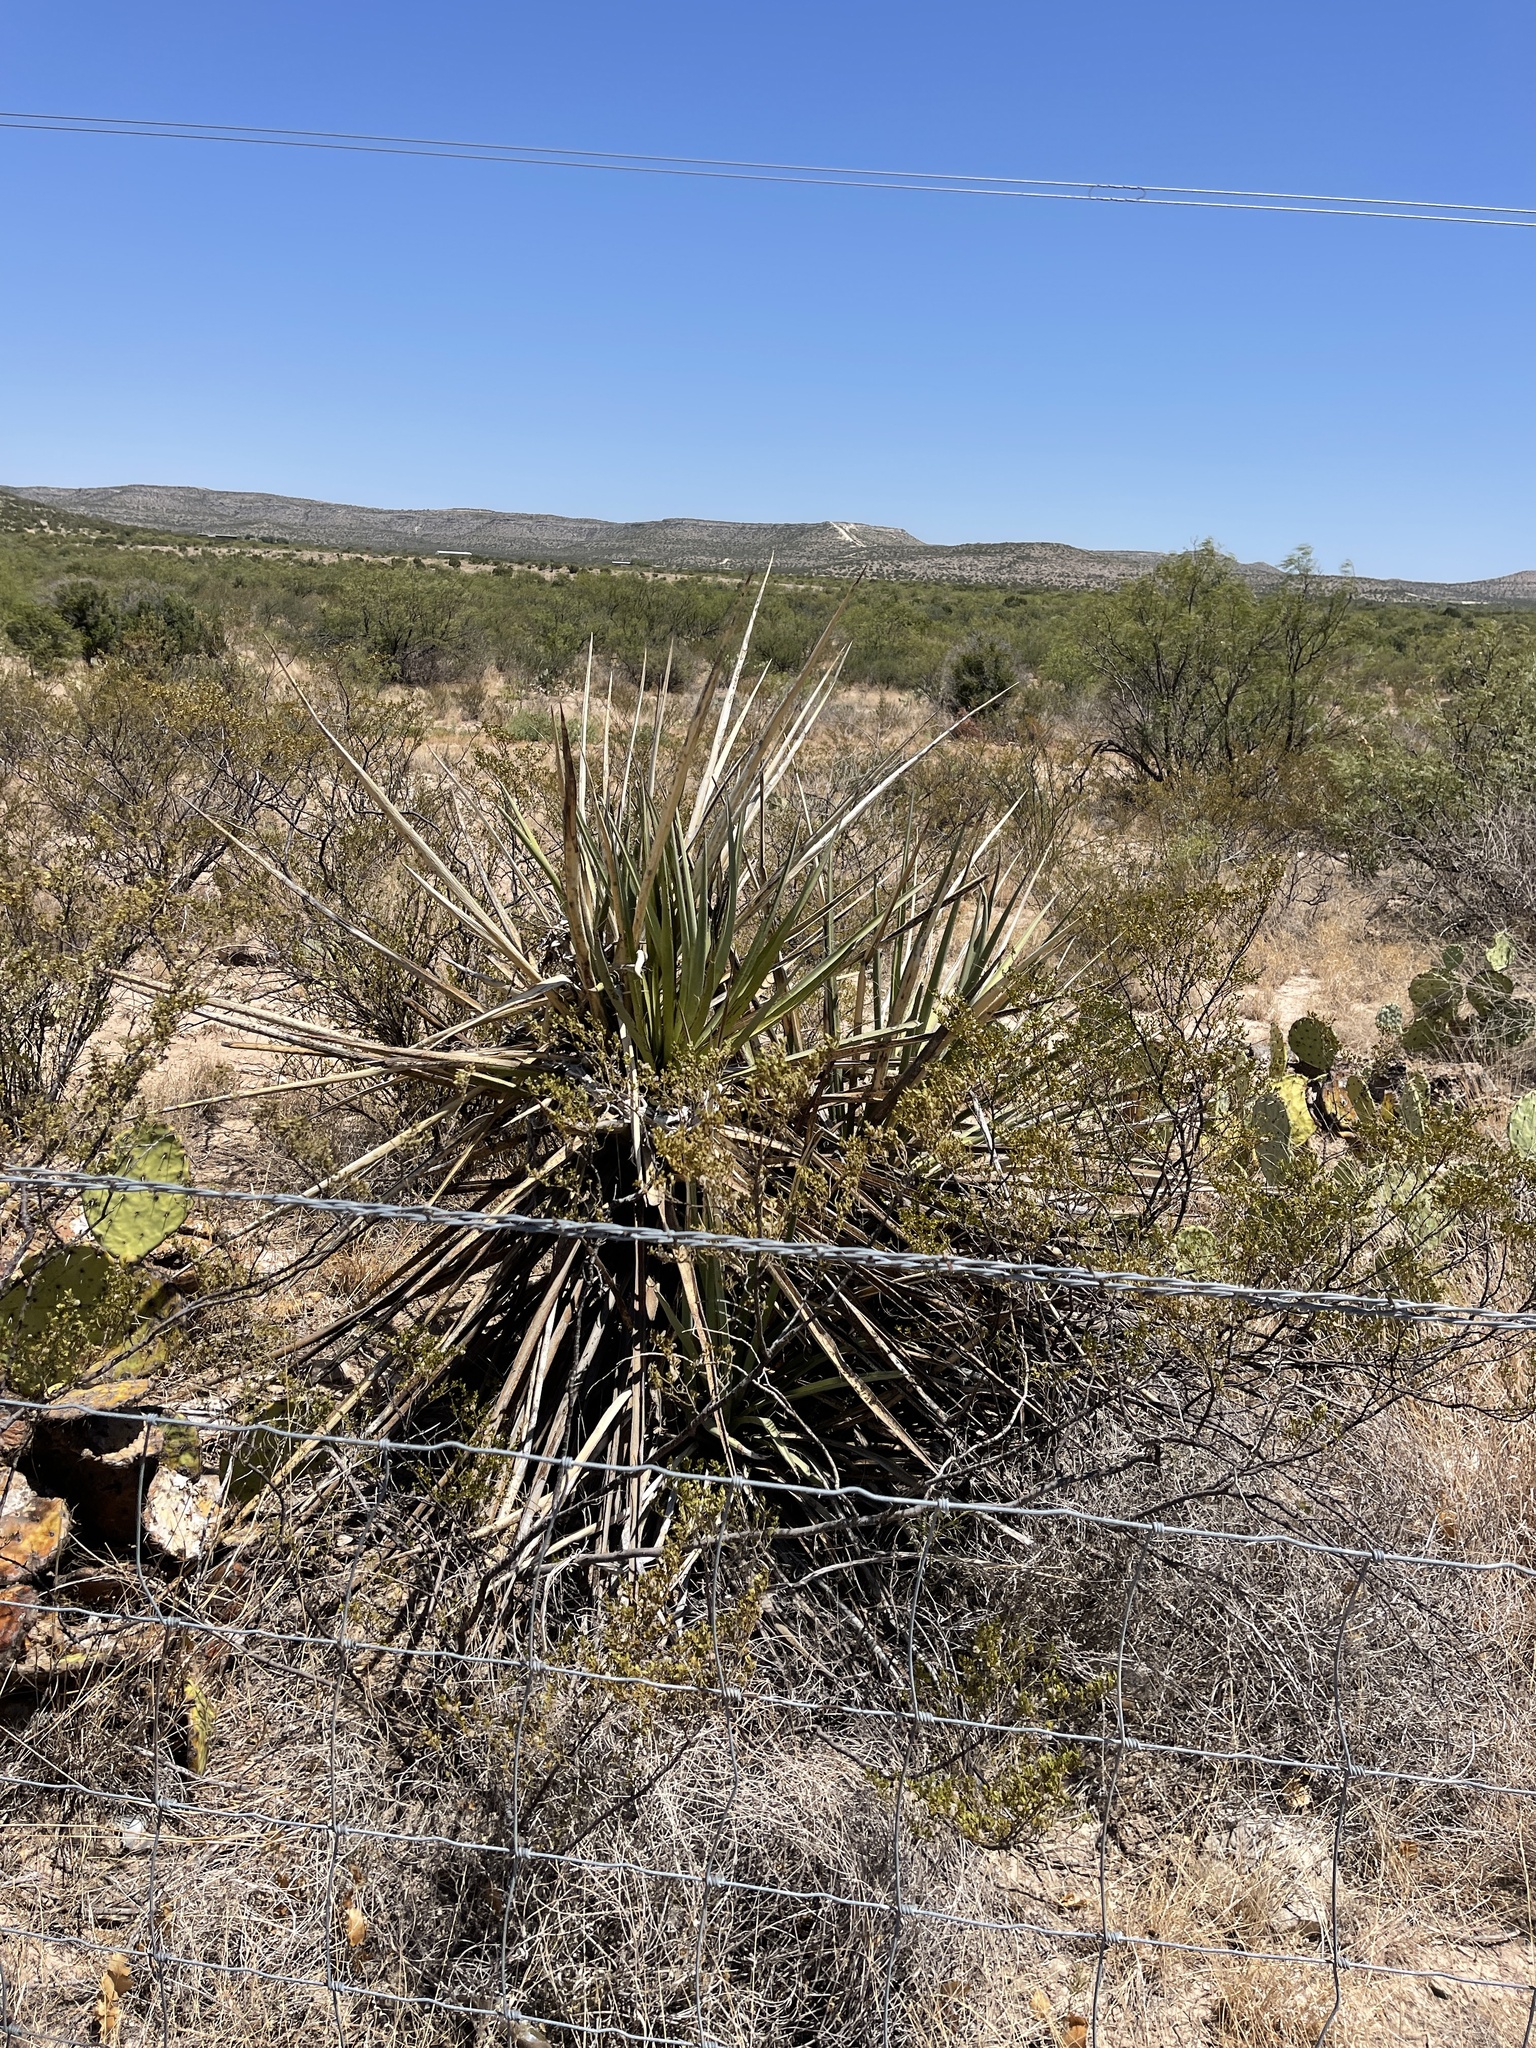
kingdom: Plantae
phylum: Tracheophyta
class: Liliopsida
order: Asparagales
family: Asparagaceae
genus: Yucca
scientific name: Yucca treculiana
